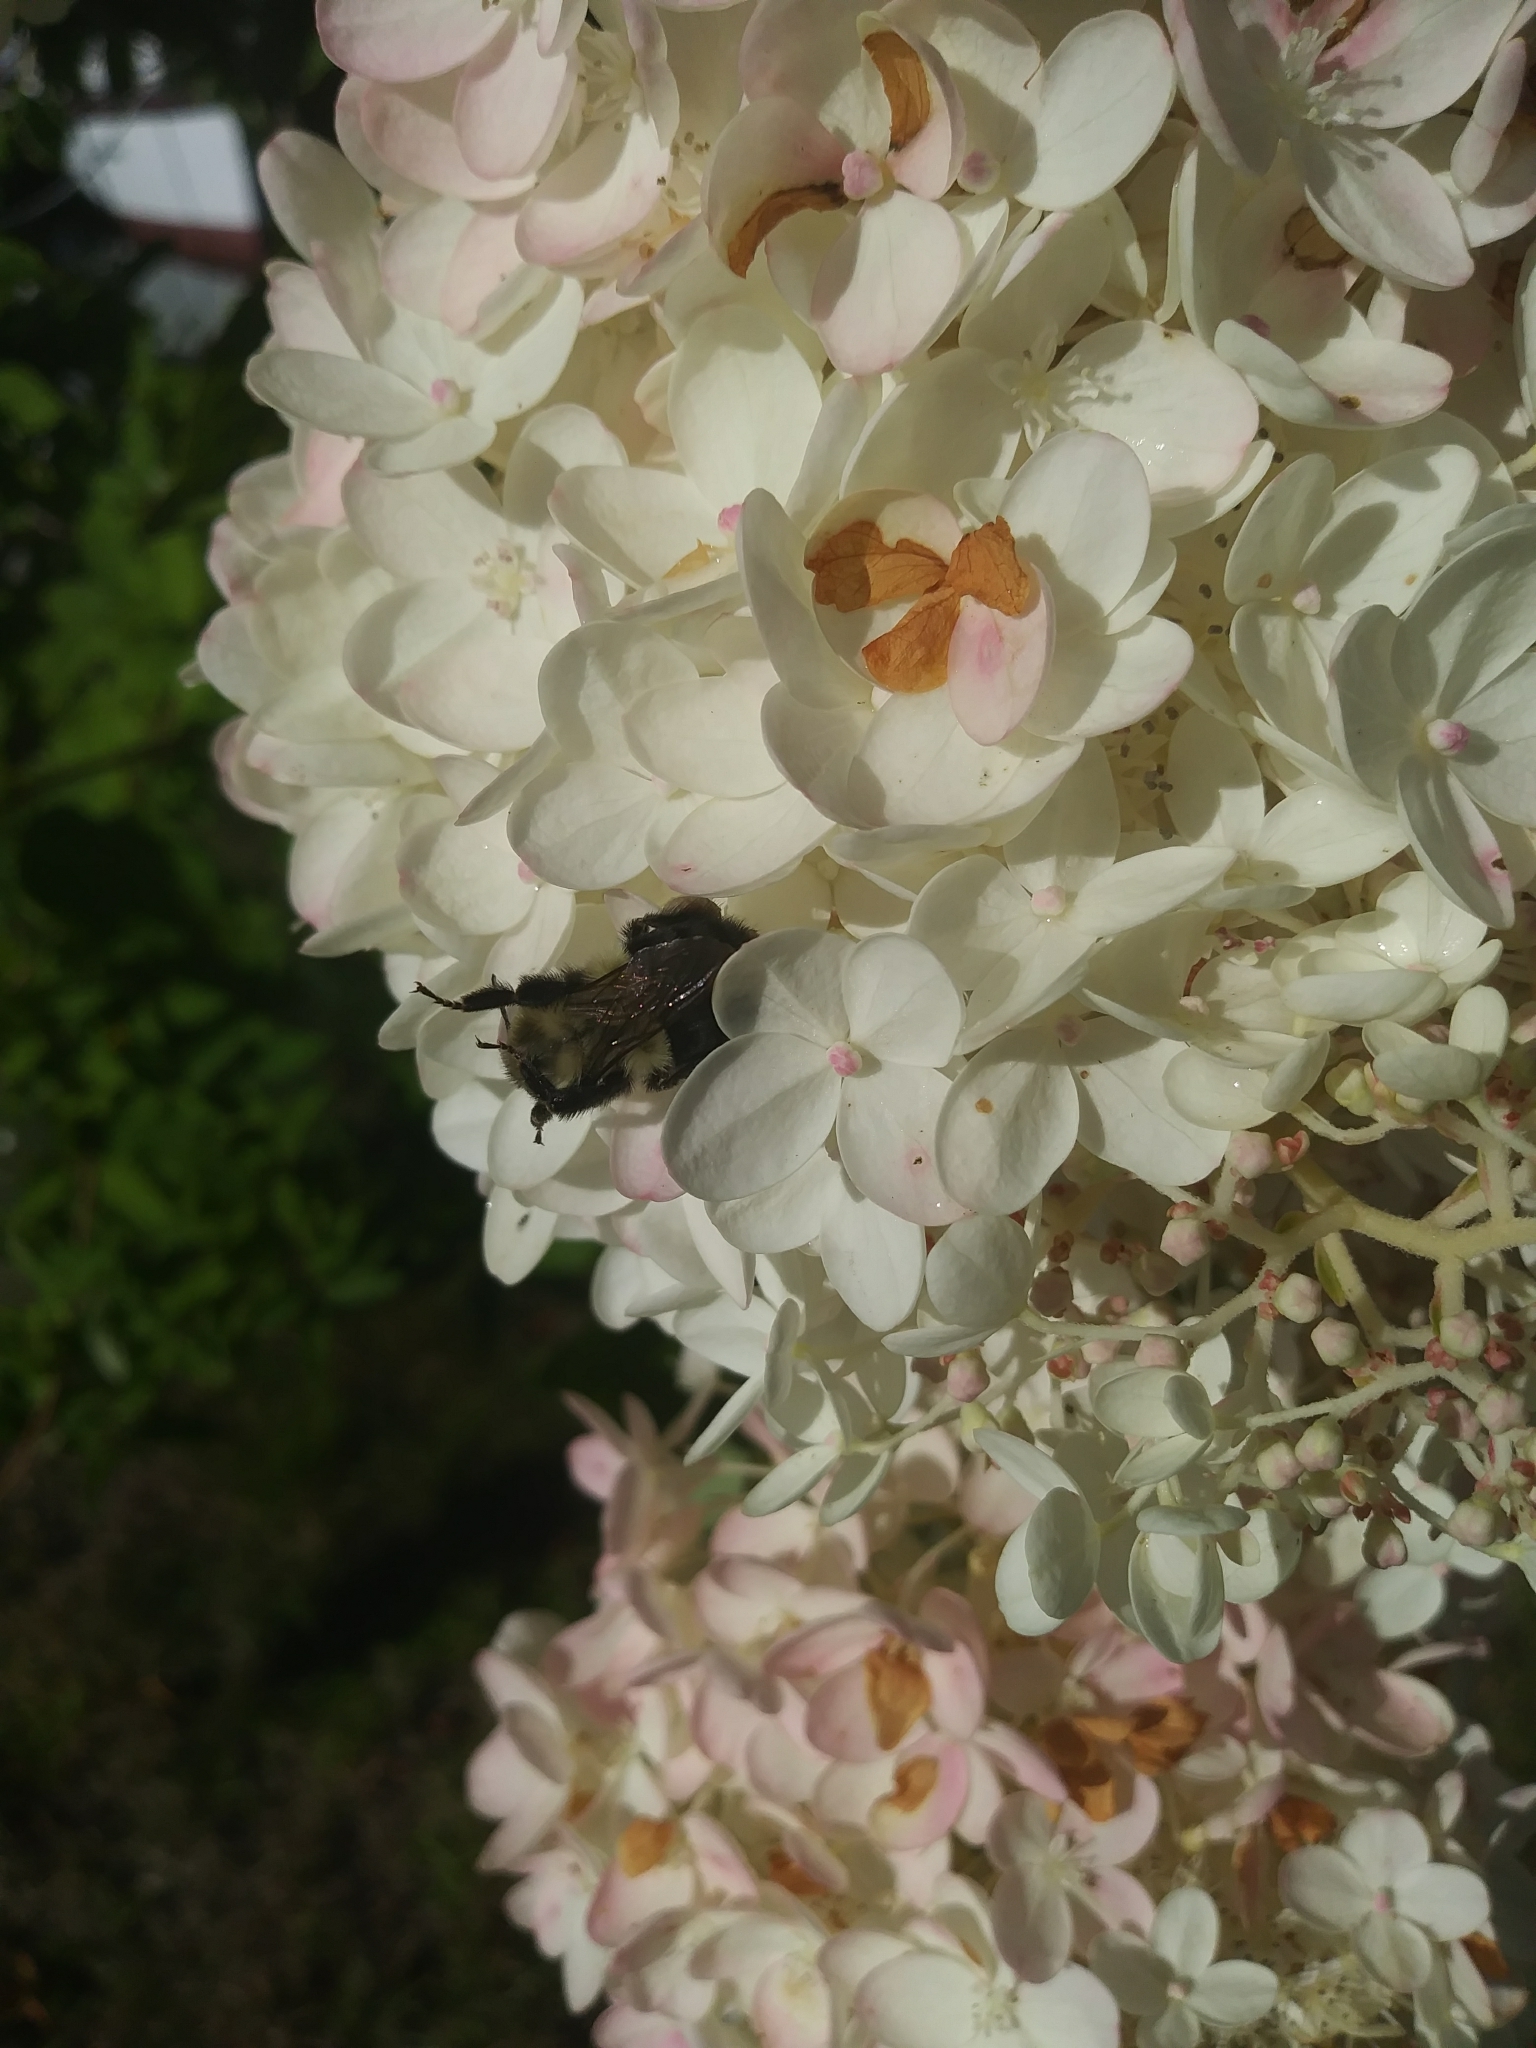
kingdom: Animalia
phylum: Arthropoda
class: Insecta
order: Hymenoptera
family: Apidae
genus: Bombus
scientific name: Bombus impatiens
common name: Common eastern bumble bee
